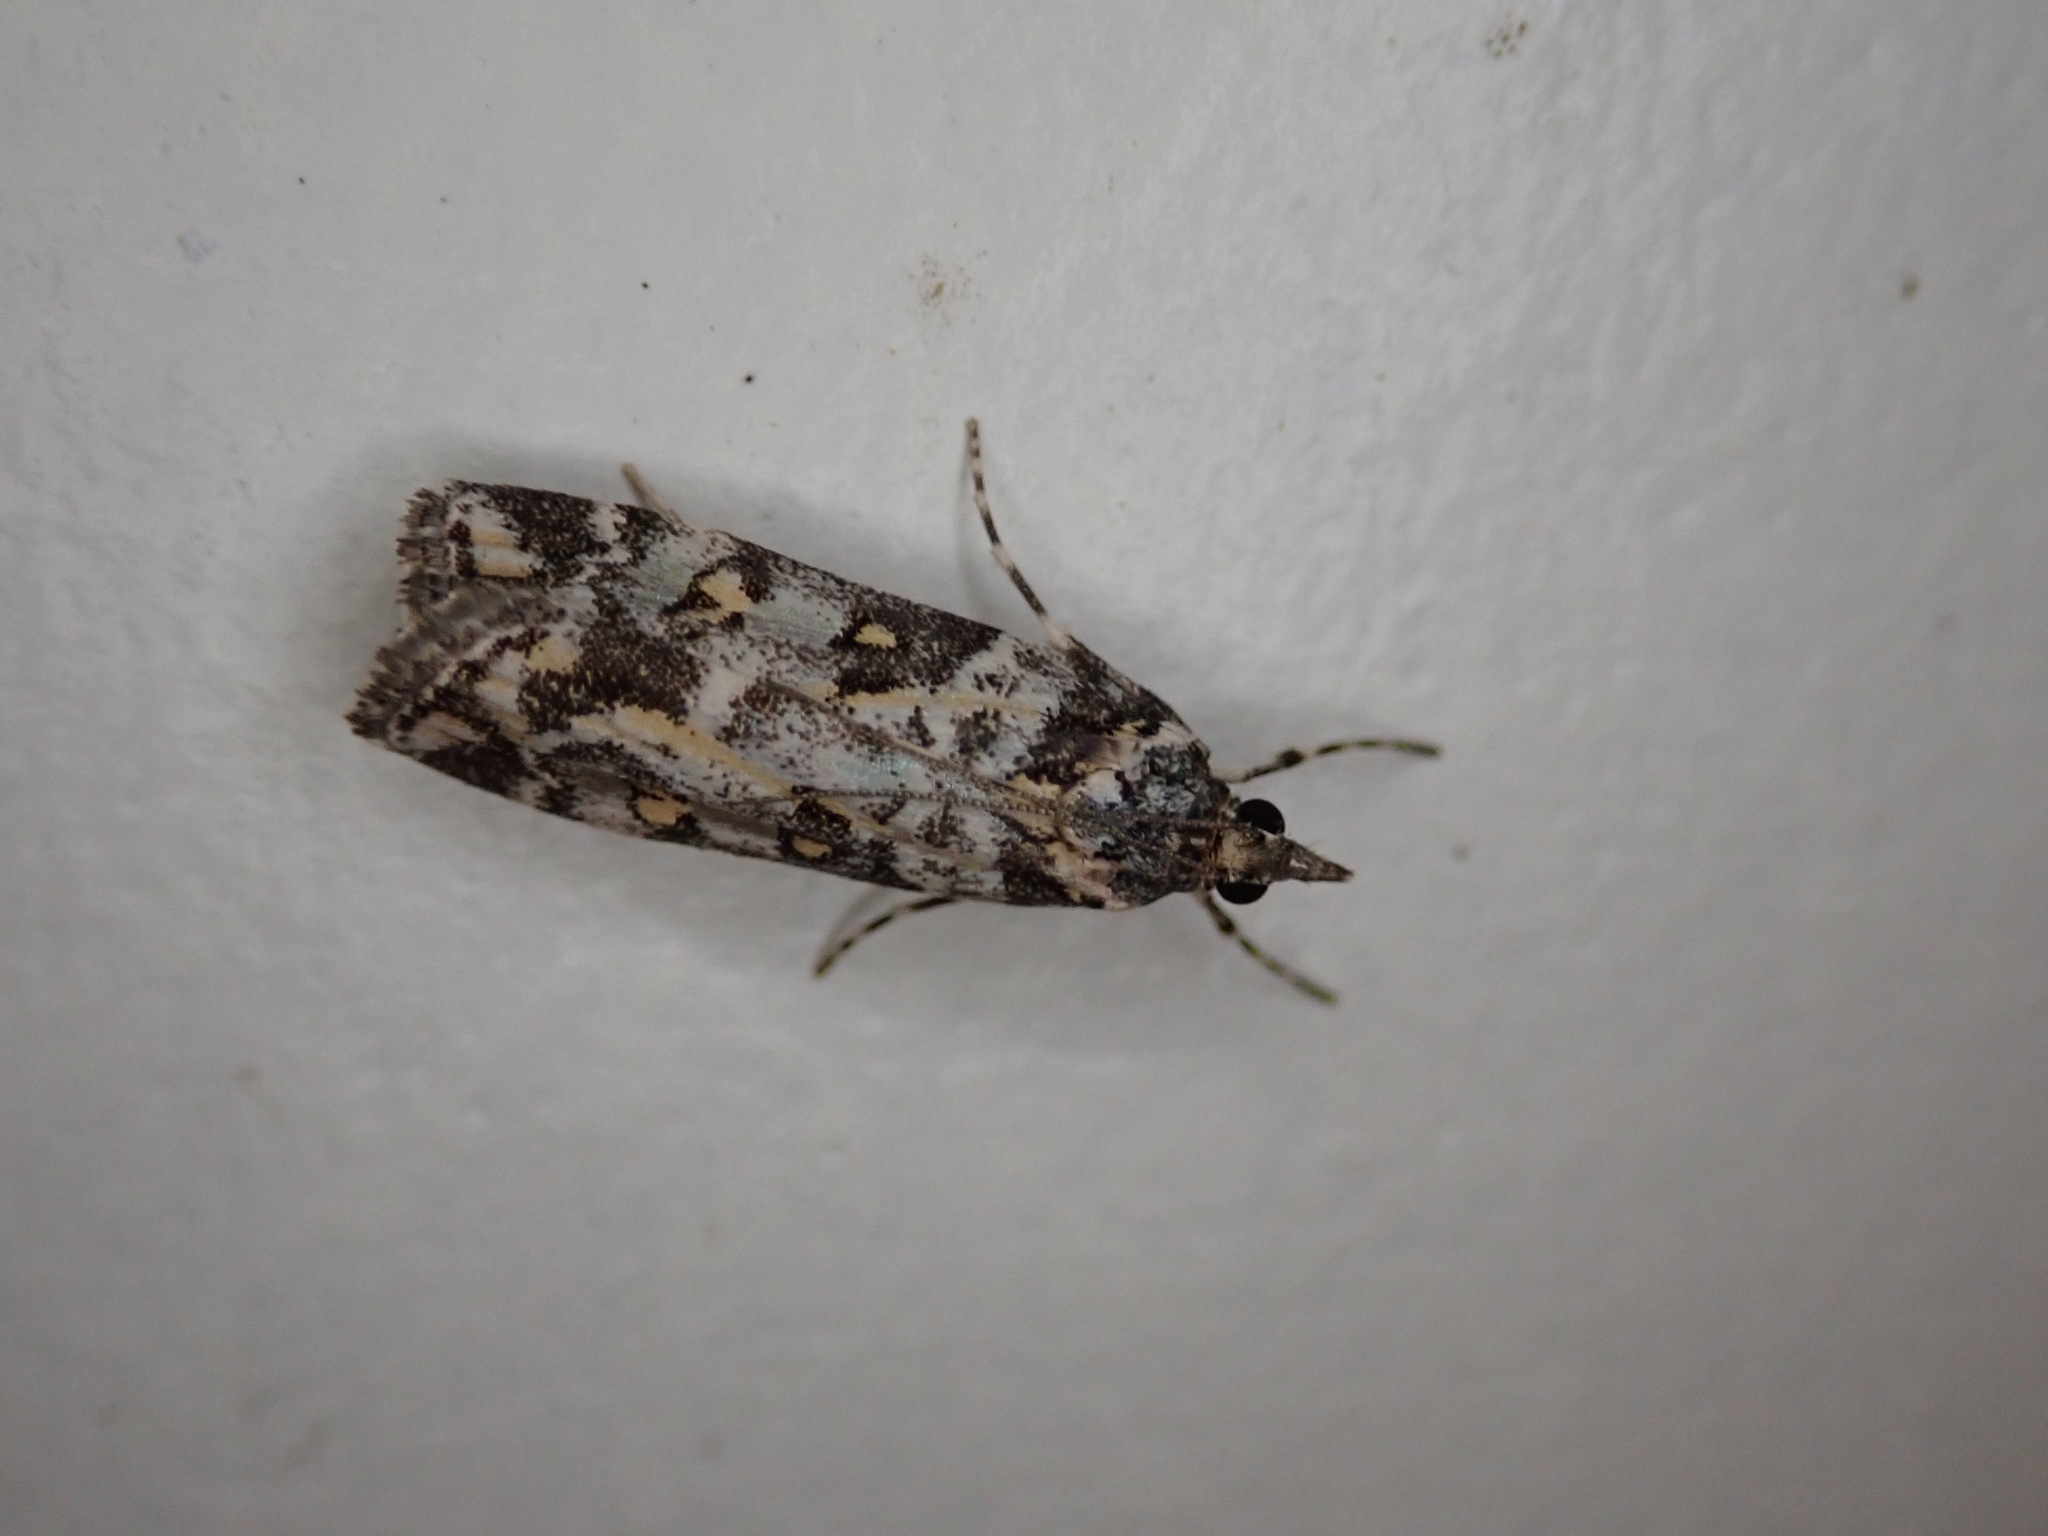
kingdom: Animalia
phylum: Arthropoda
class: Insecta
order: Lepidoptera
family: Crambidae
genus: Eudonia
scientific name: Eudonia diphtheralis
